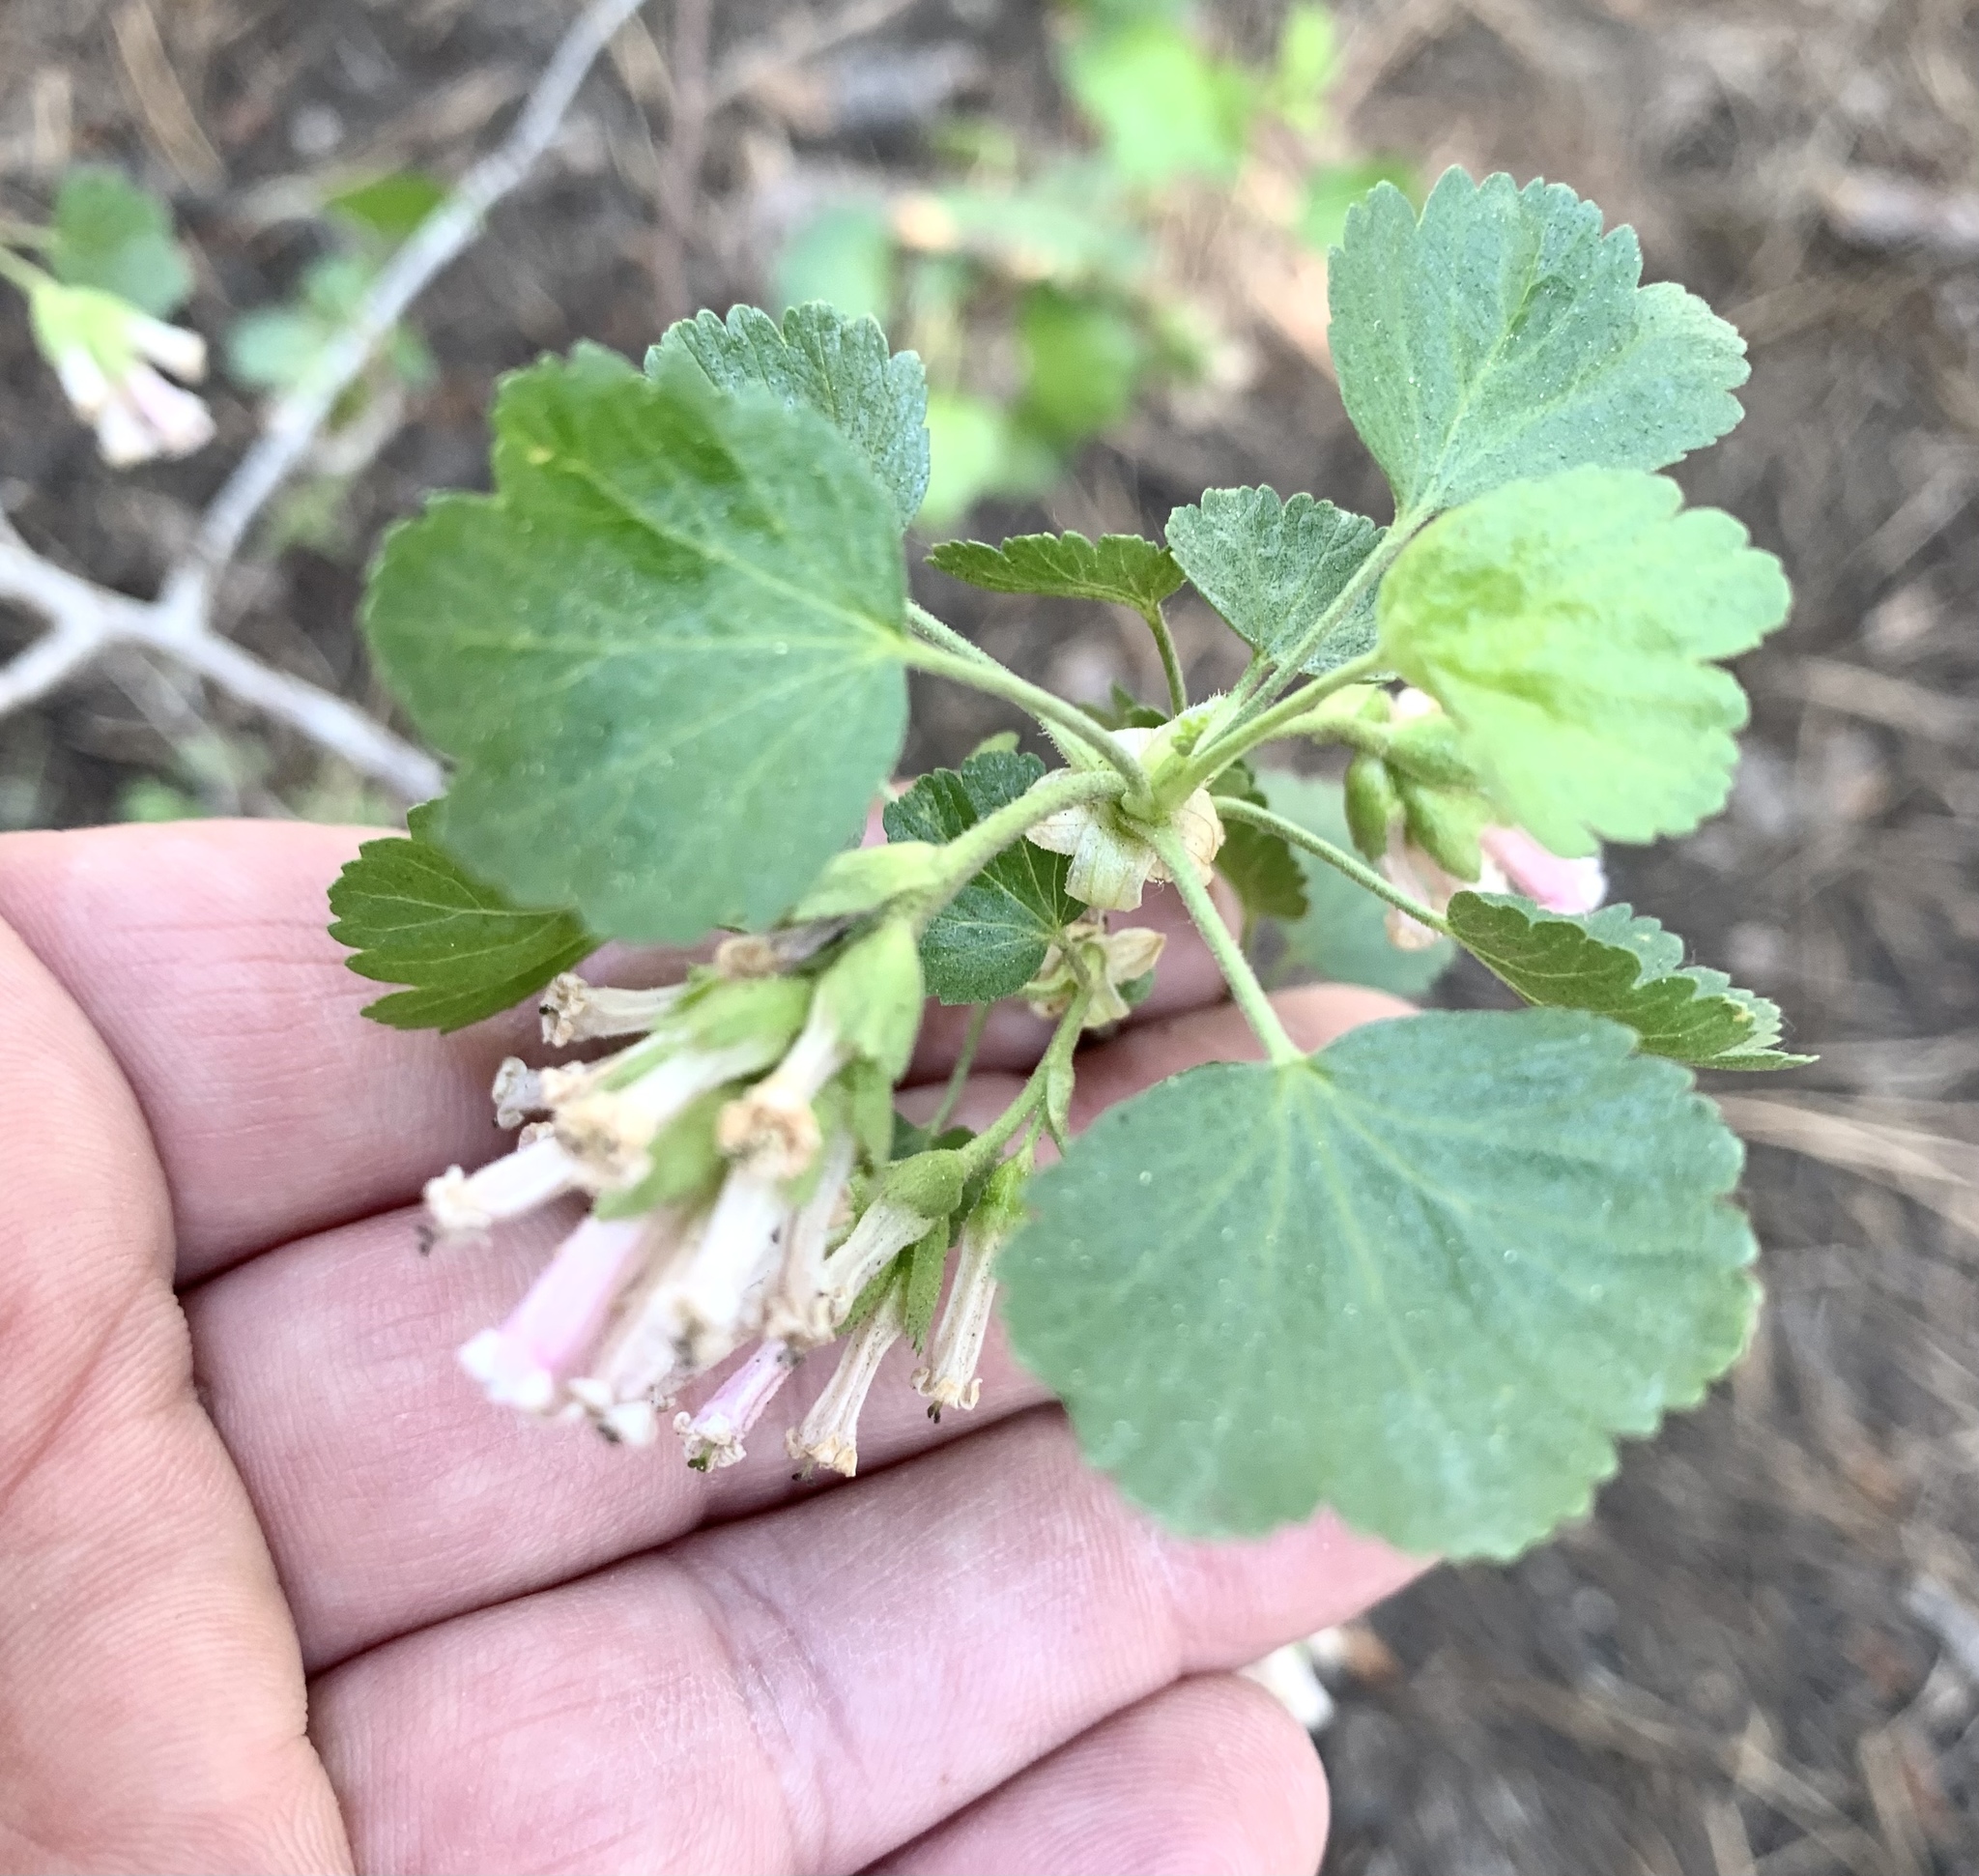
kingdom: Plantae
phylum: Tracheophyta
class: Magnoliopsida
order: Saxifragales
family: Grossulariaceae
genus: Ribes
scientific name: Ribes cereum
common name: Wax currant
